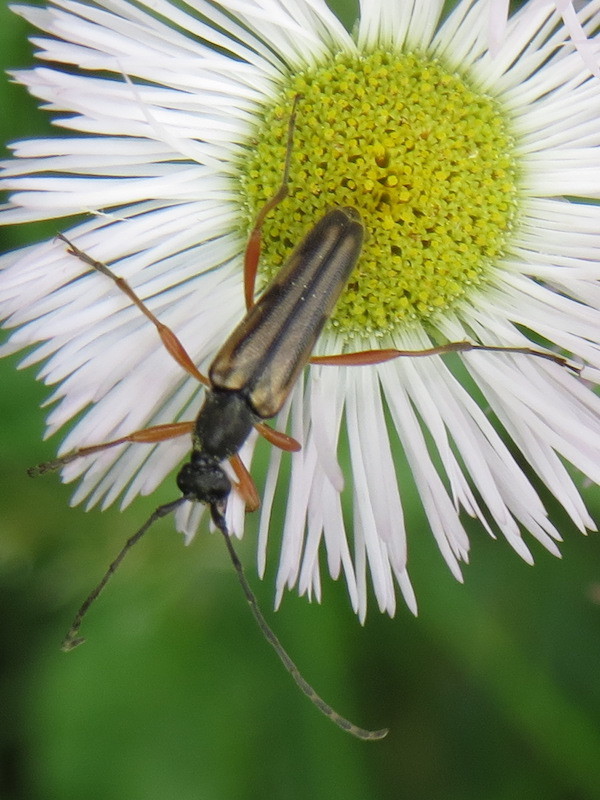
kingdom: Animalia
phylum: Arthropoda
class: Insecta
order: Coleoptera
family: Cerambycidae
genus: Analeptura
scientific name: Analeptura lineola
